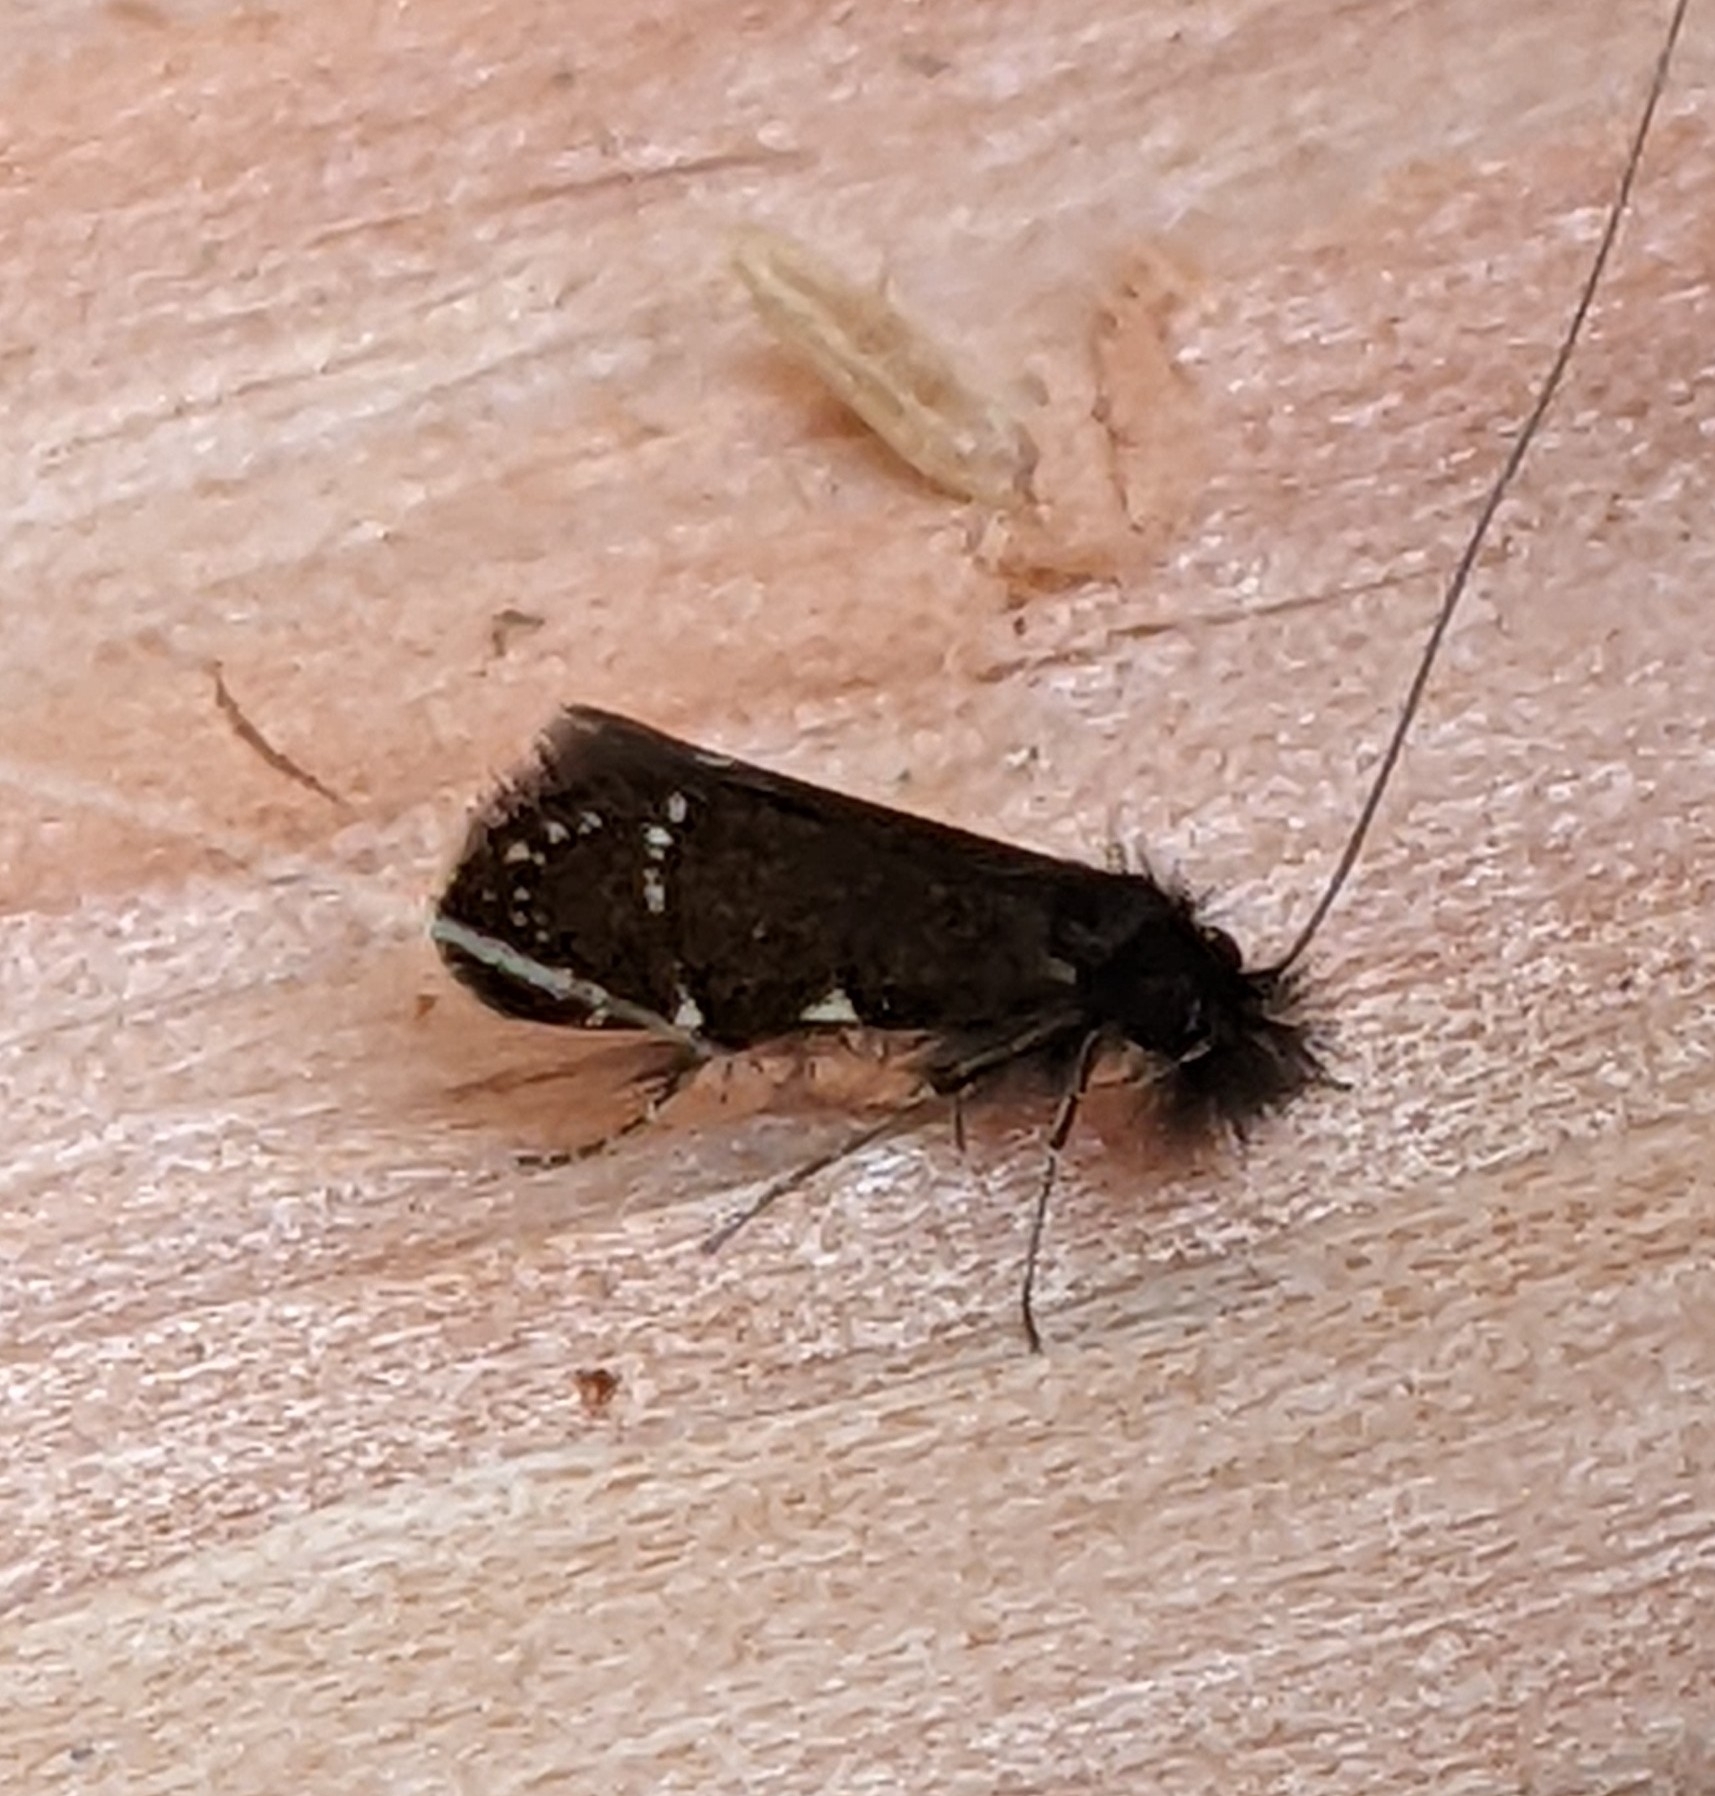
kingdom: Animalia
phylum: Arthropoda
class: Insecta
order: Lepidoptera
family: Adelidae
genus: Adela
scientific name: Adela septentrionella
